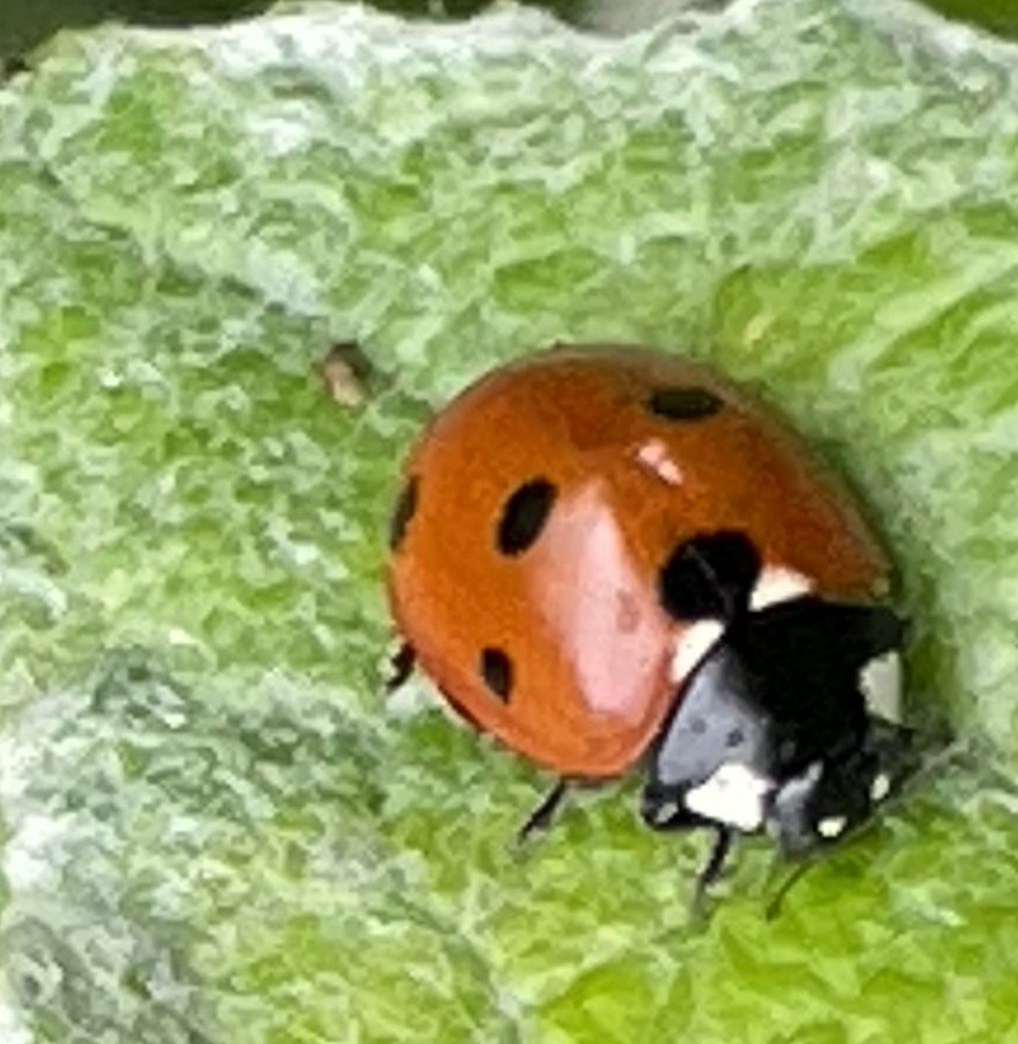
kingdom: Animalia
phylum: Arthropoda
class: Insecta
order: Coleoptera
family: Coccinellidae
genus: Coccinella
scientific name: Coccinella septempunctata
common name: Sevenspotted lady beetle
